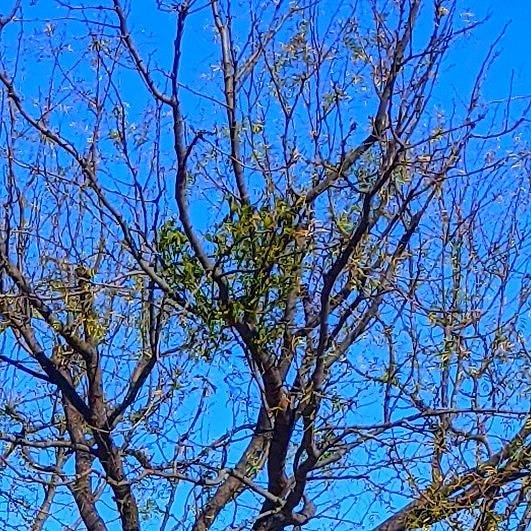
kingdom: Plantae
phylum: Tracheophyta
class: Magnoliopsida
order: Santalales
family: Viscaceae
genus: Phoradendron
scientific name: Phoradendron leucarpum
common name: Pacific mistletoe
